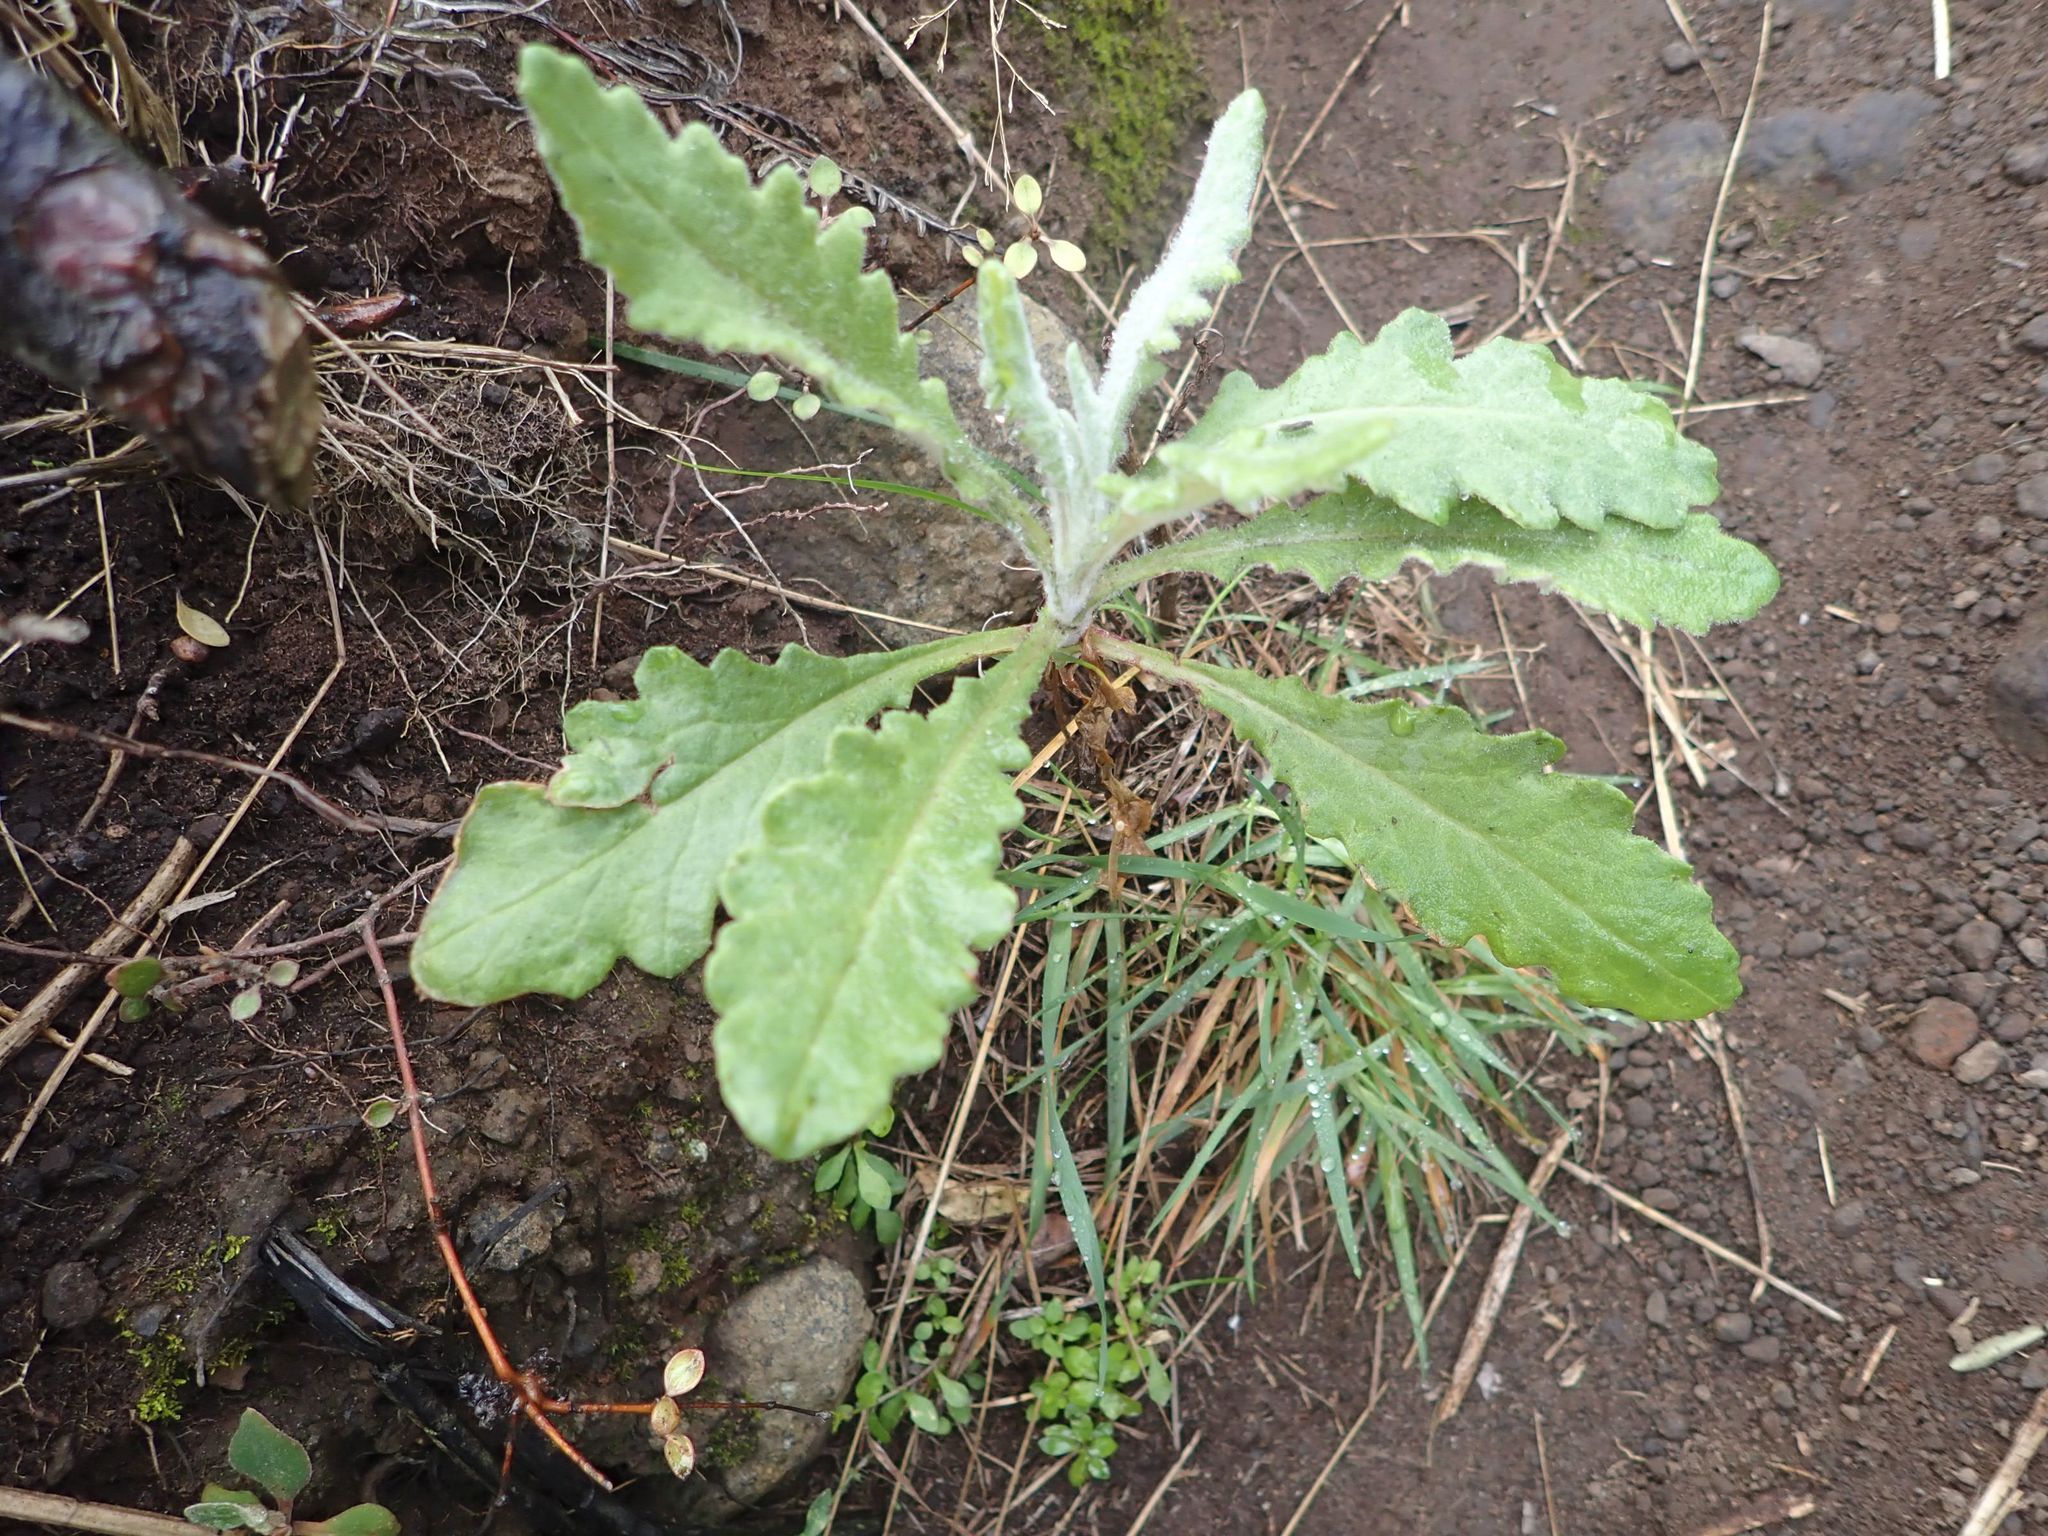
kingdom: Plantae
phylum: Tracheophyta
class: Magnoliopsida
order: Asterales
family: Asteraceae
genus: Senecio
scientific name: Senecio glomeratus
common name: Cutleaf burnweed
